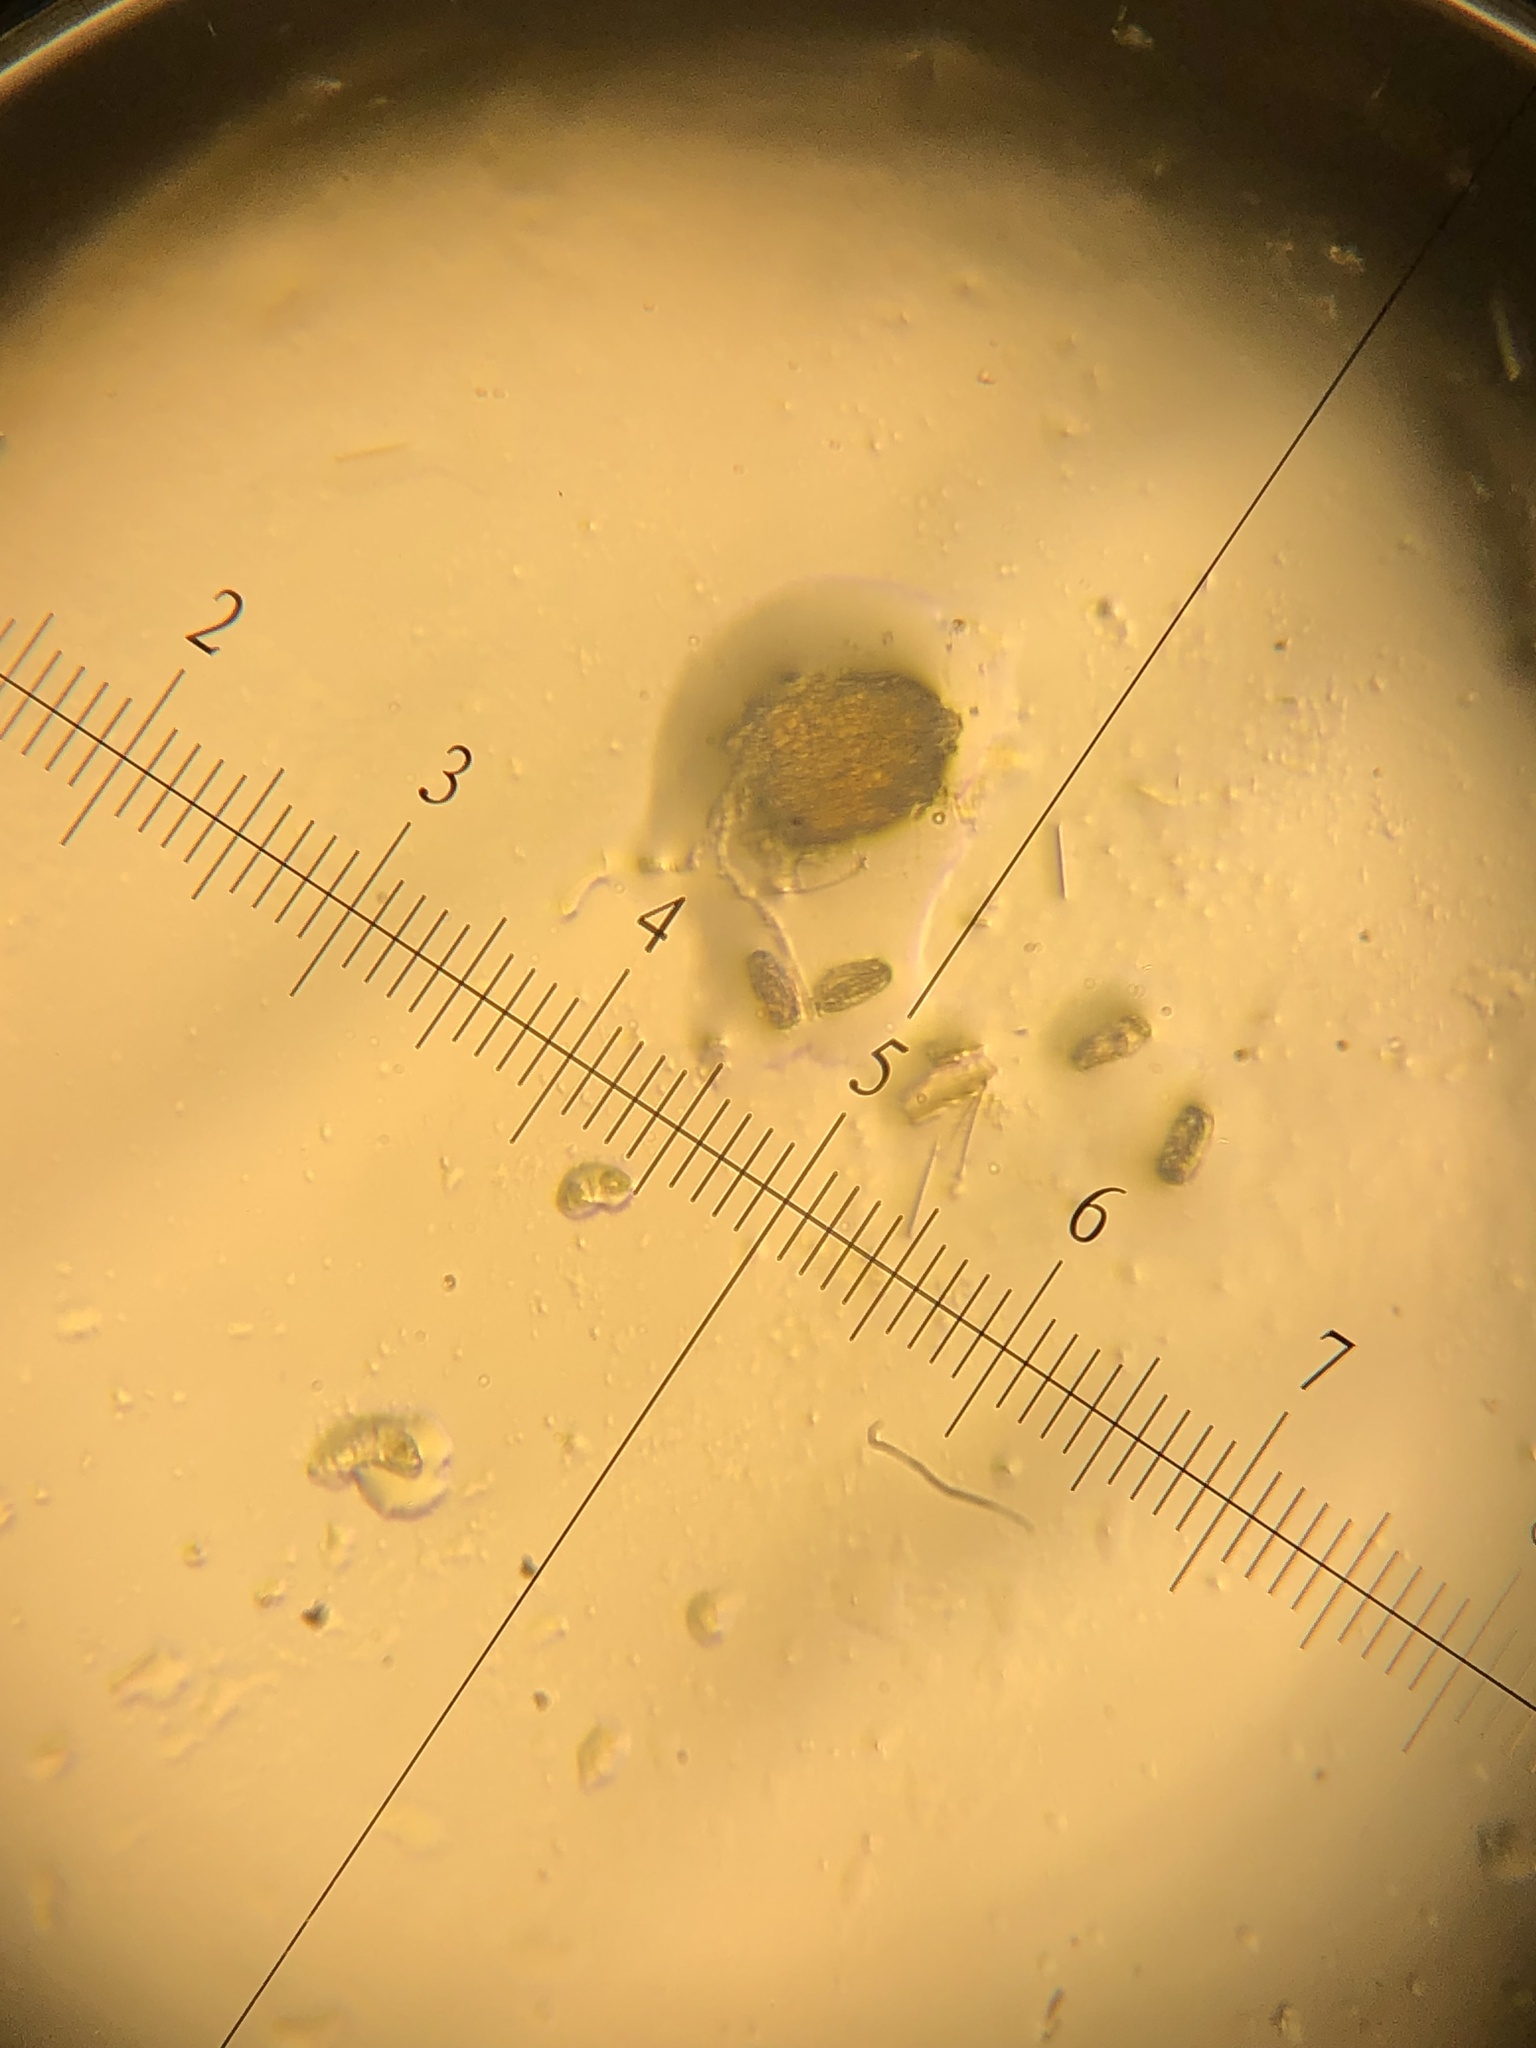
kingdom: Animalia
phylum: Arthropoda
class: Arachnida
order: Trombidiformes
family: Eriophyidae
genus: Colomerus
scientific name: Colomerus vitis
